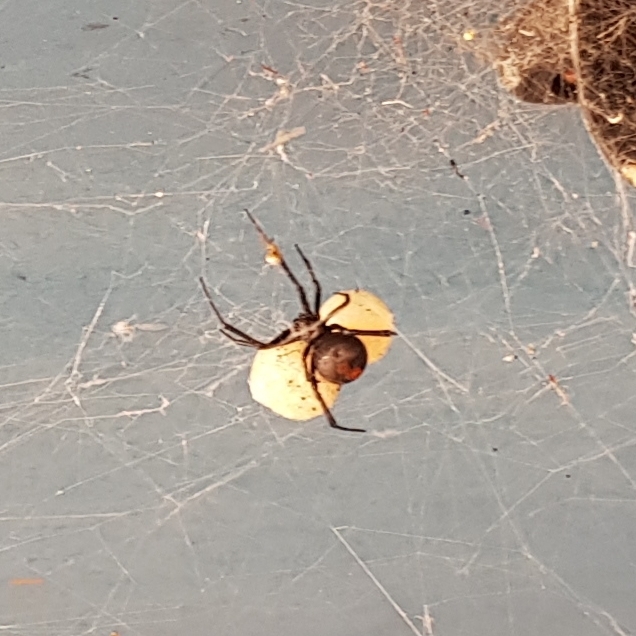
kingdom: Animalia
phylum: Arthropoda
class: Arachnida
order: Araneae
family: Theridiidae
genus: Latrodectus
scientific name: Latrodectus hasselti
